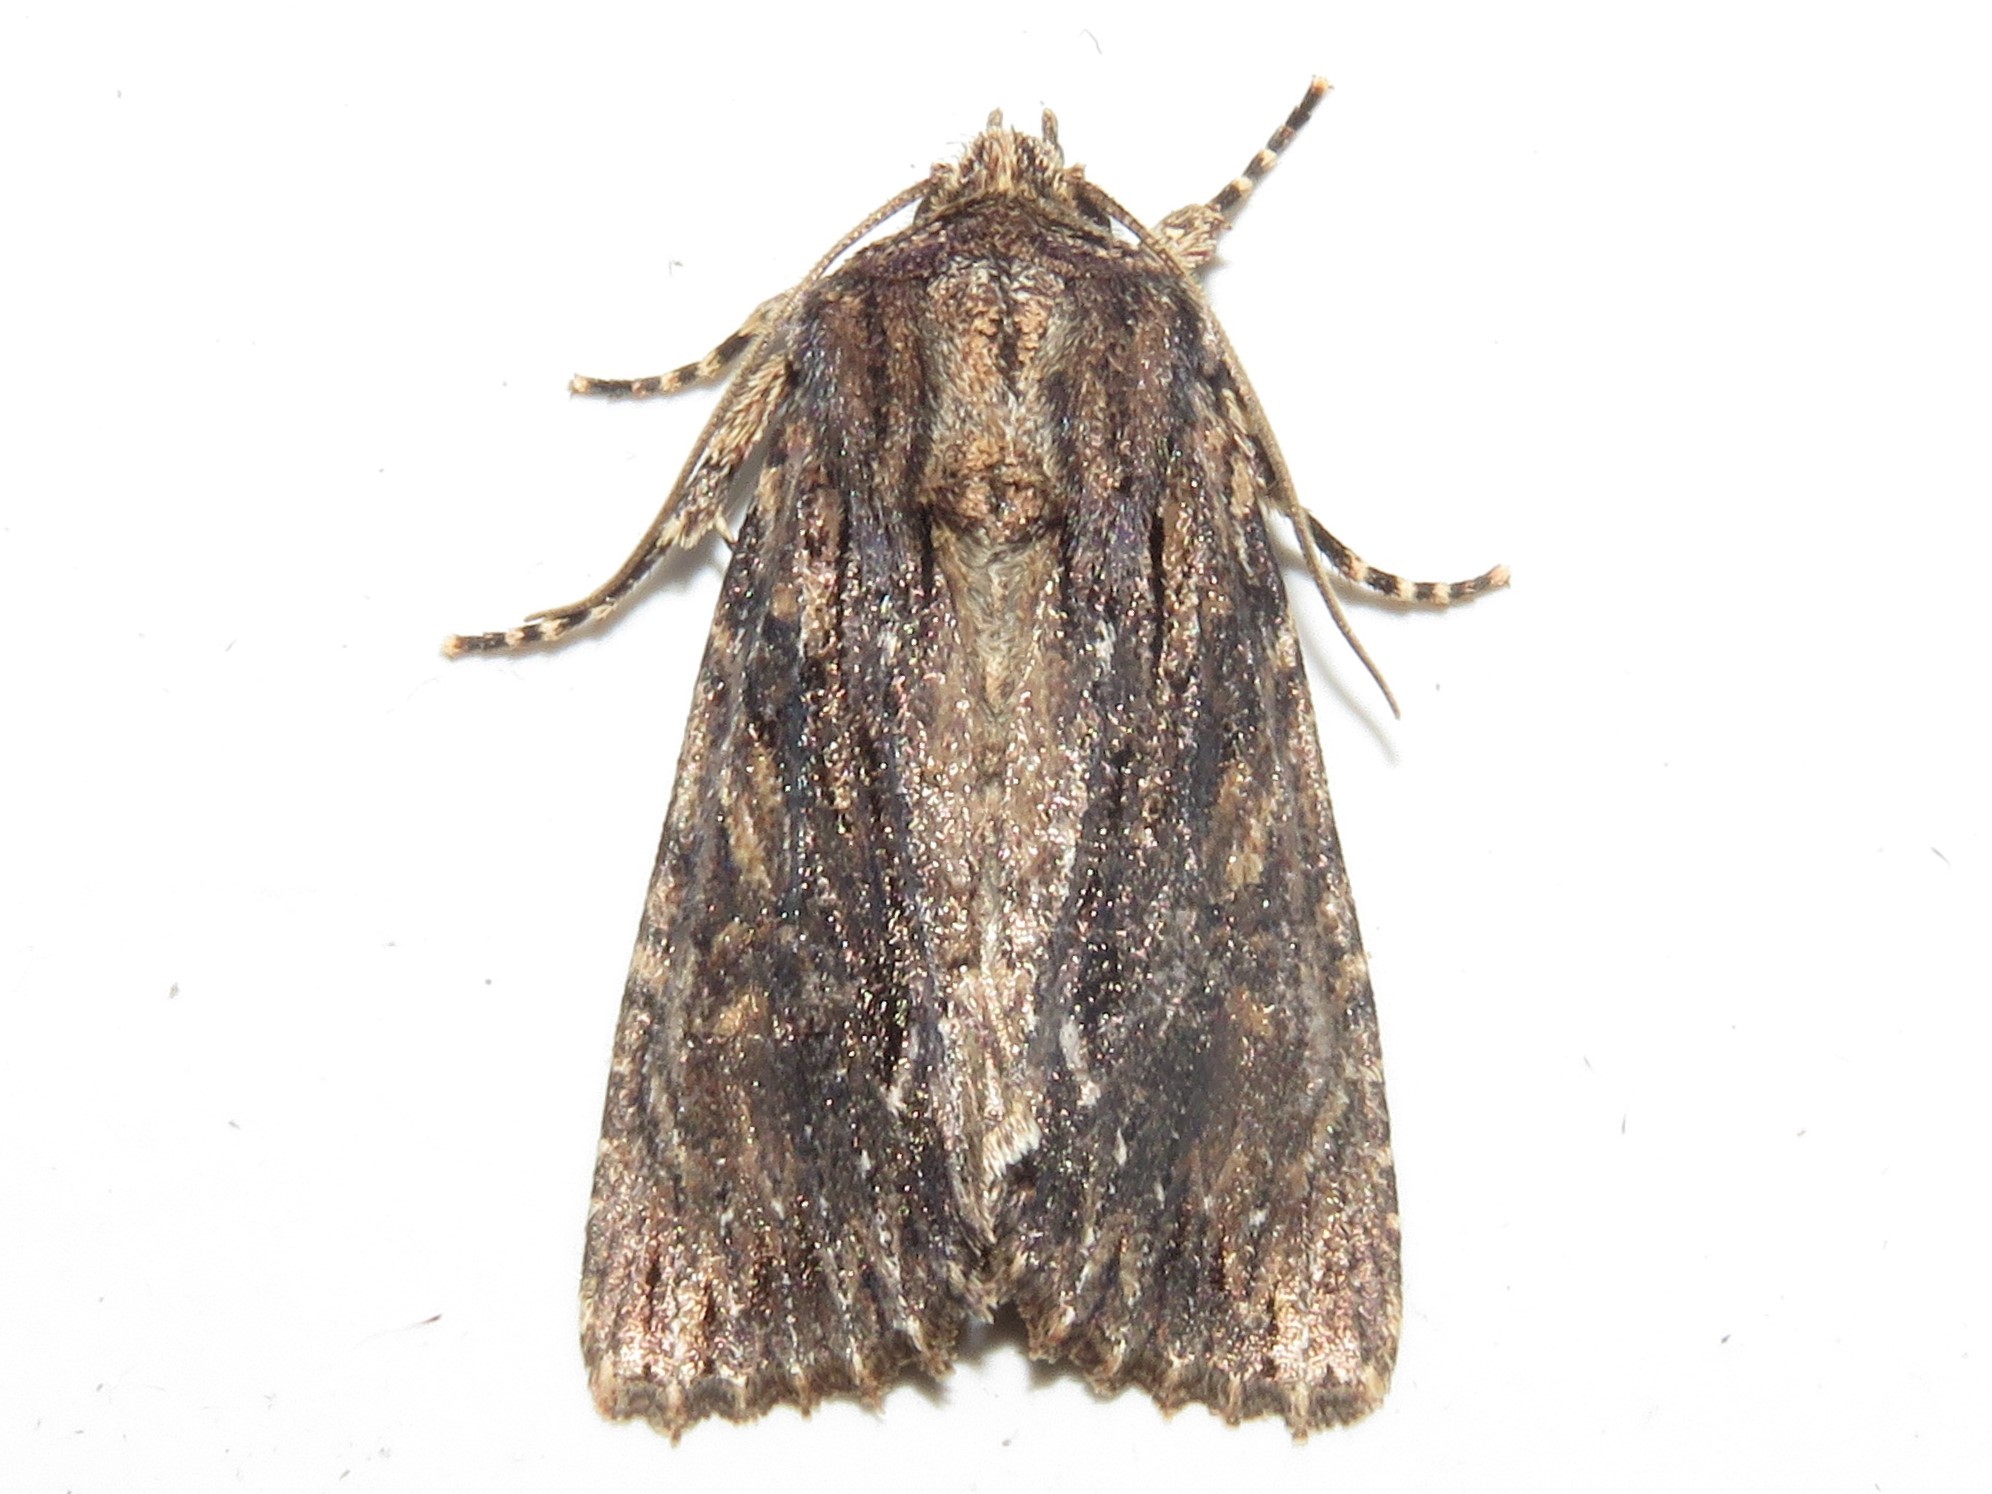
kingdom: Animalia
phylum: Arthropoda
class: Insecta
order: Lepidoptera
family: Noctuidae
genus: Achatia
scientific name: Achatia confusa
